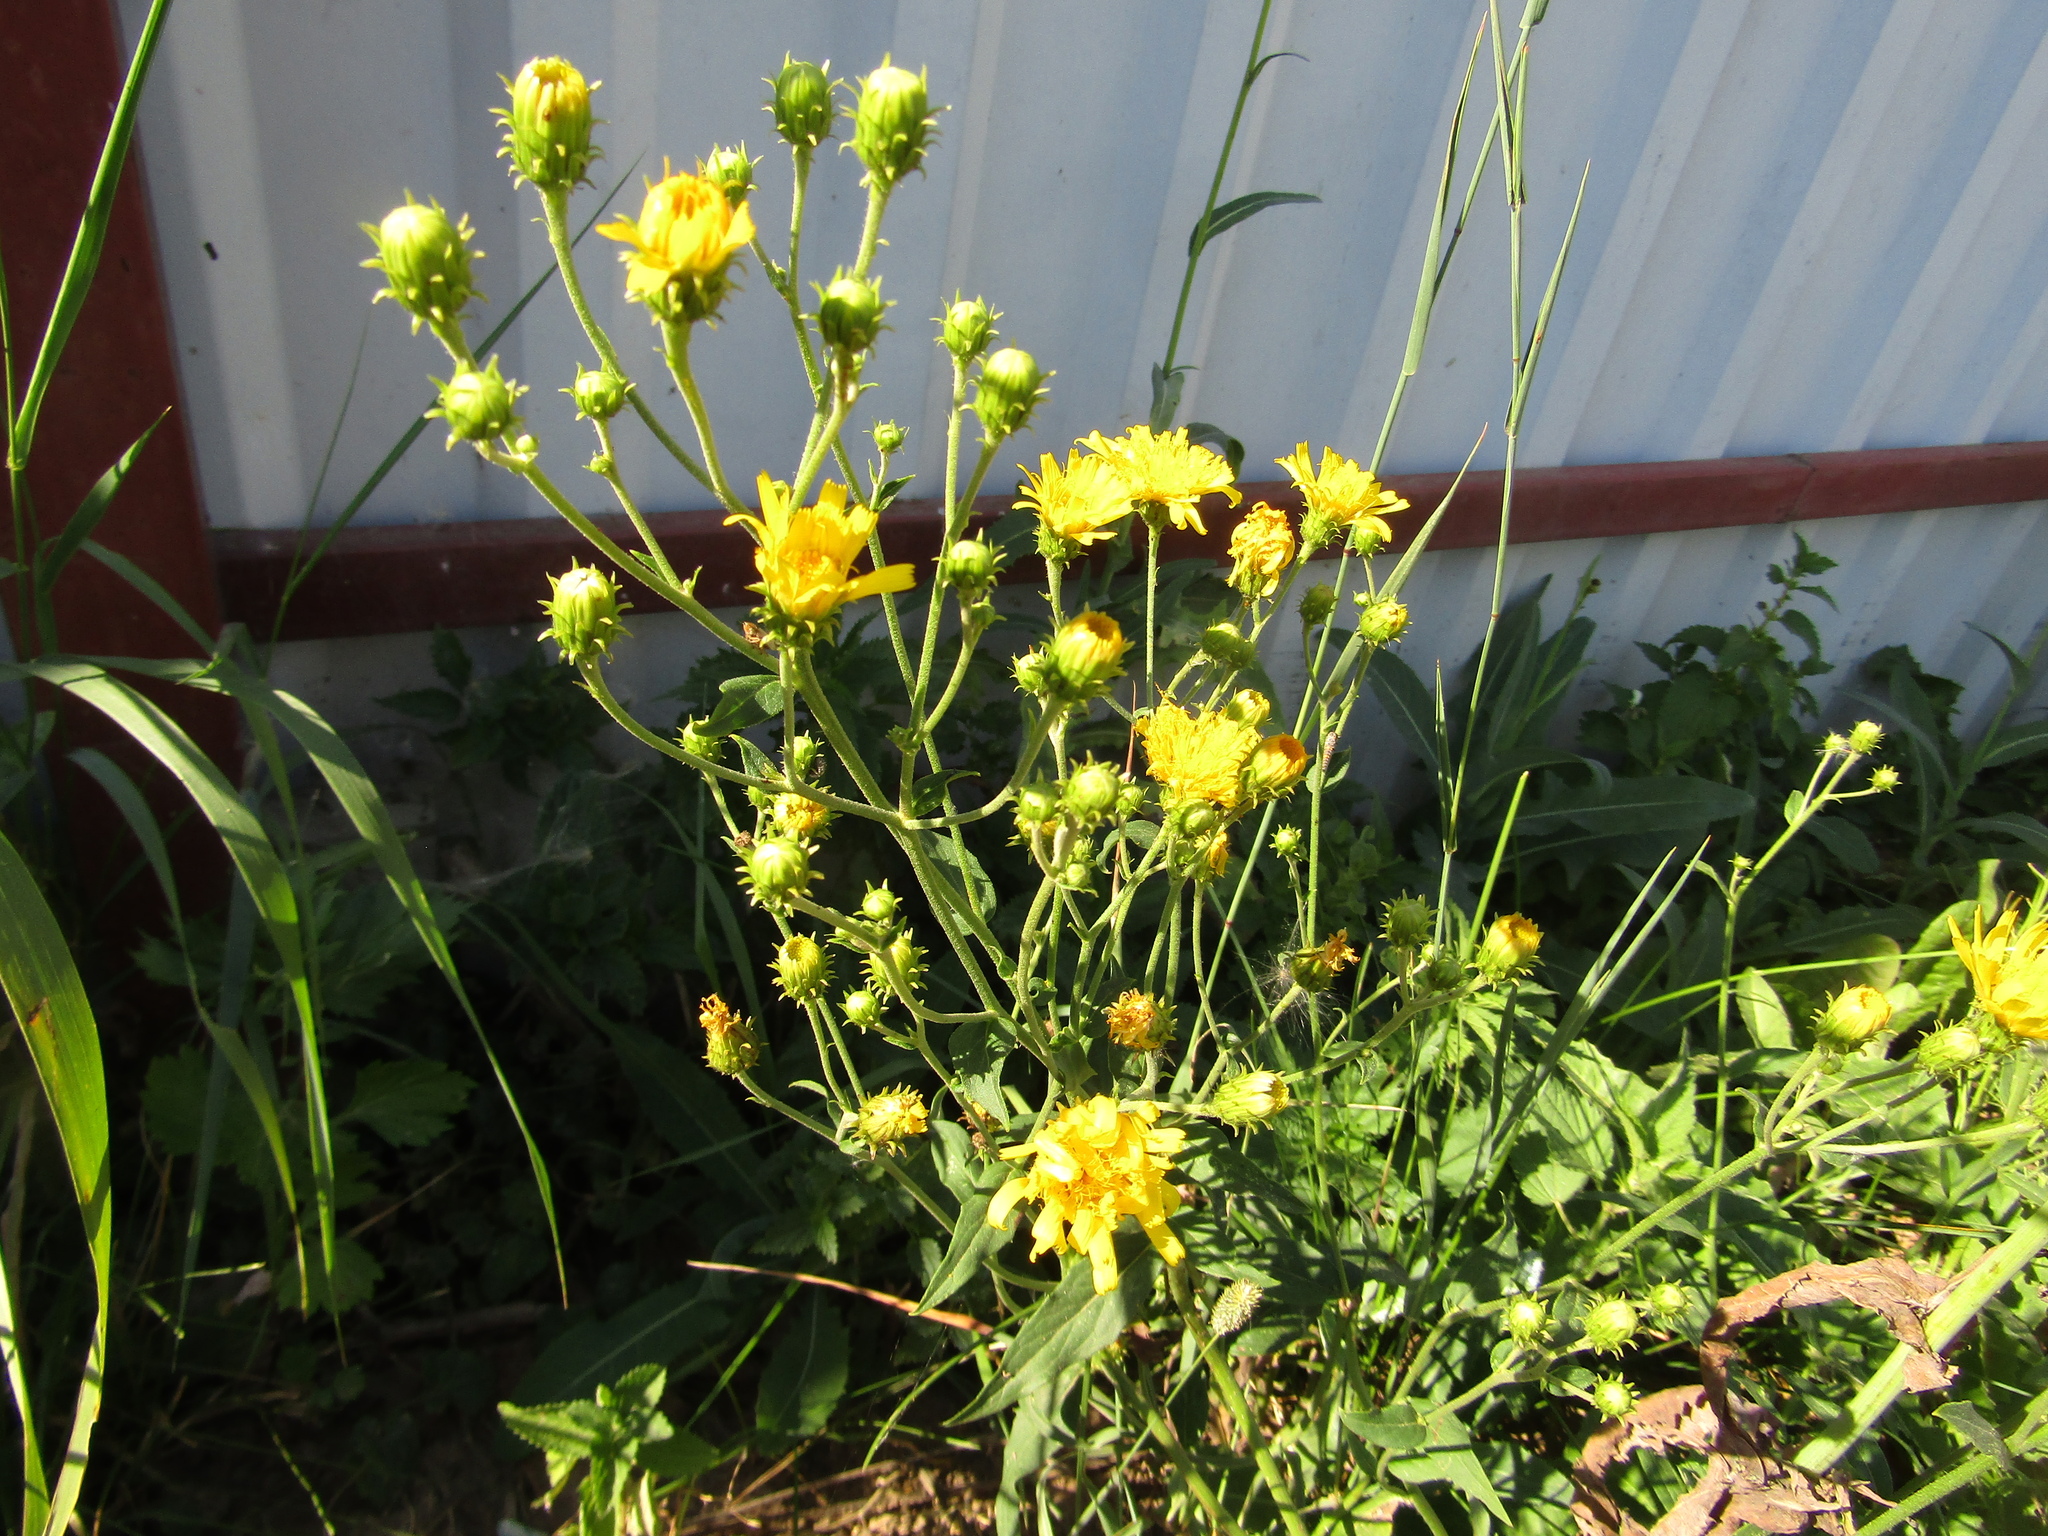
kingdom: Plantae
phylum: Tracheophyta
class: Magnoliopsida
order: Asterales
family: Asteraceae
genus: Hieracium
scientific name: Hieracium umbellatum
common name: Northern hawkweed
